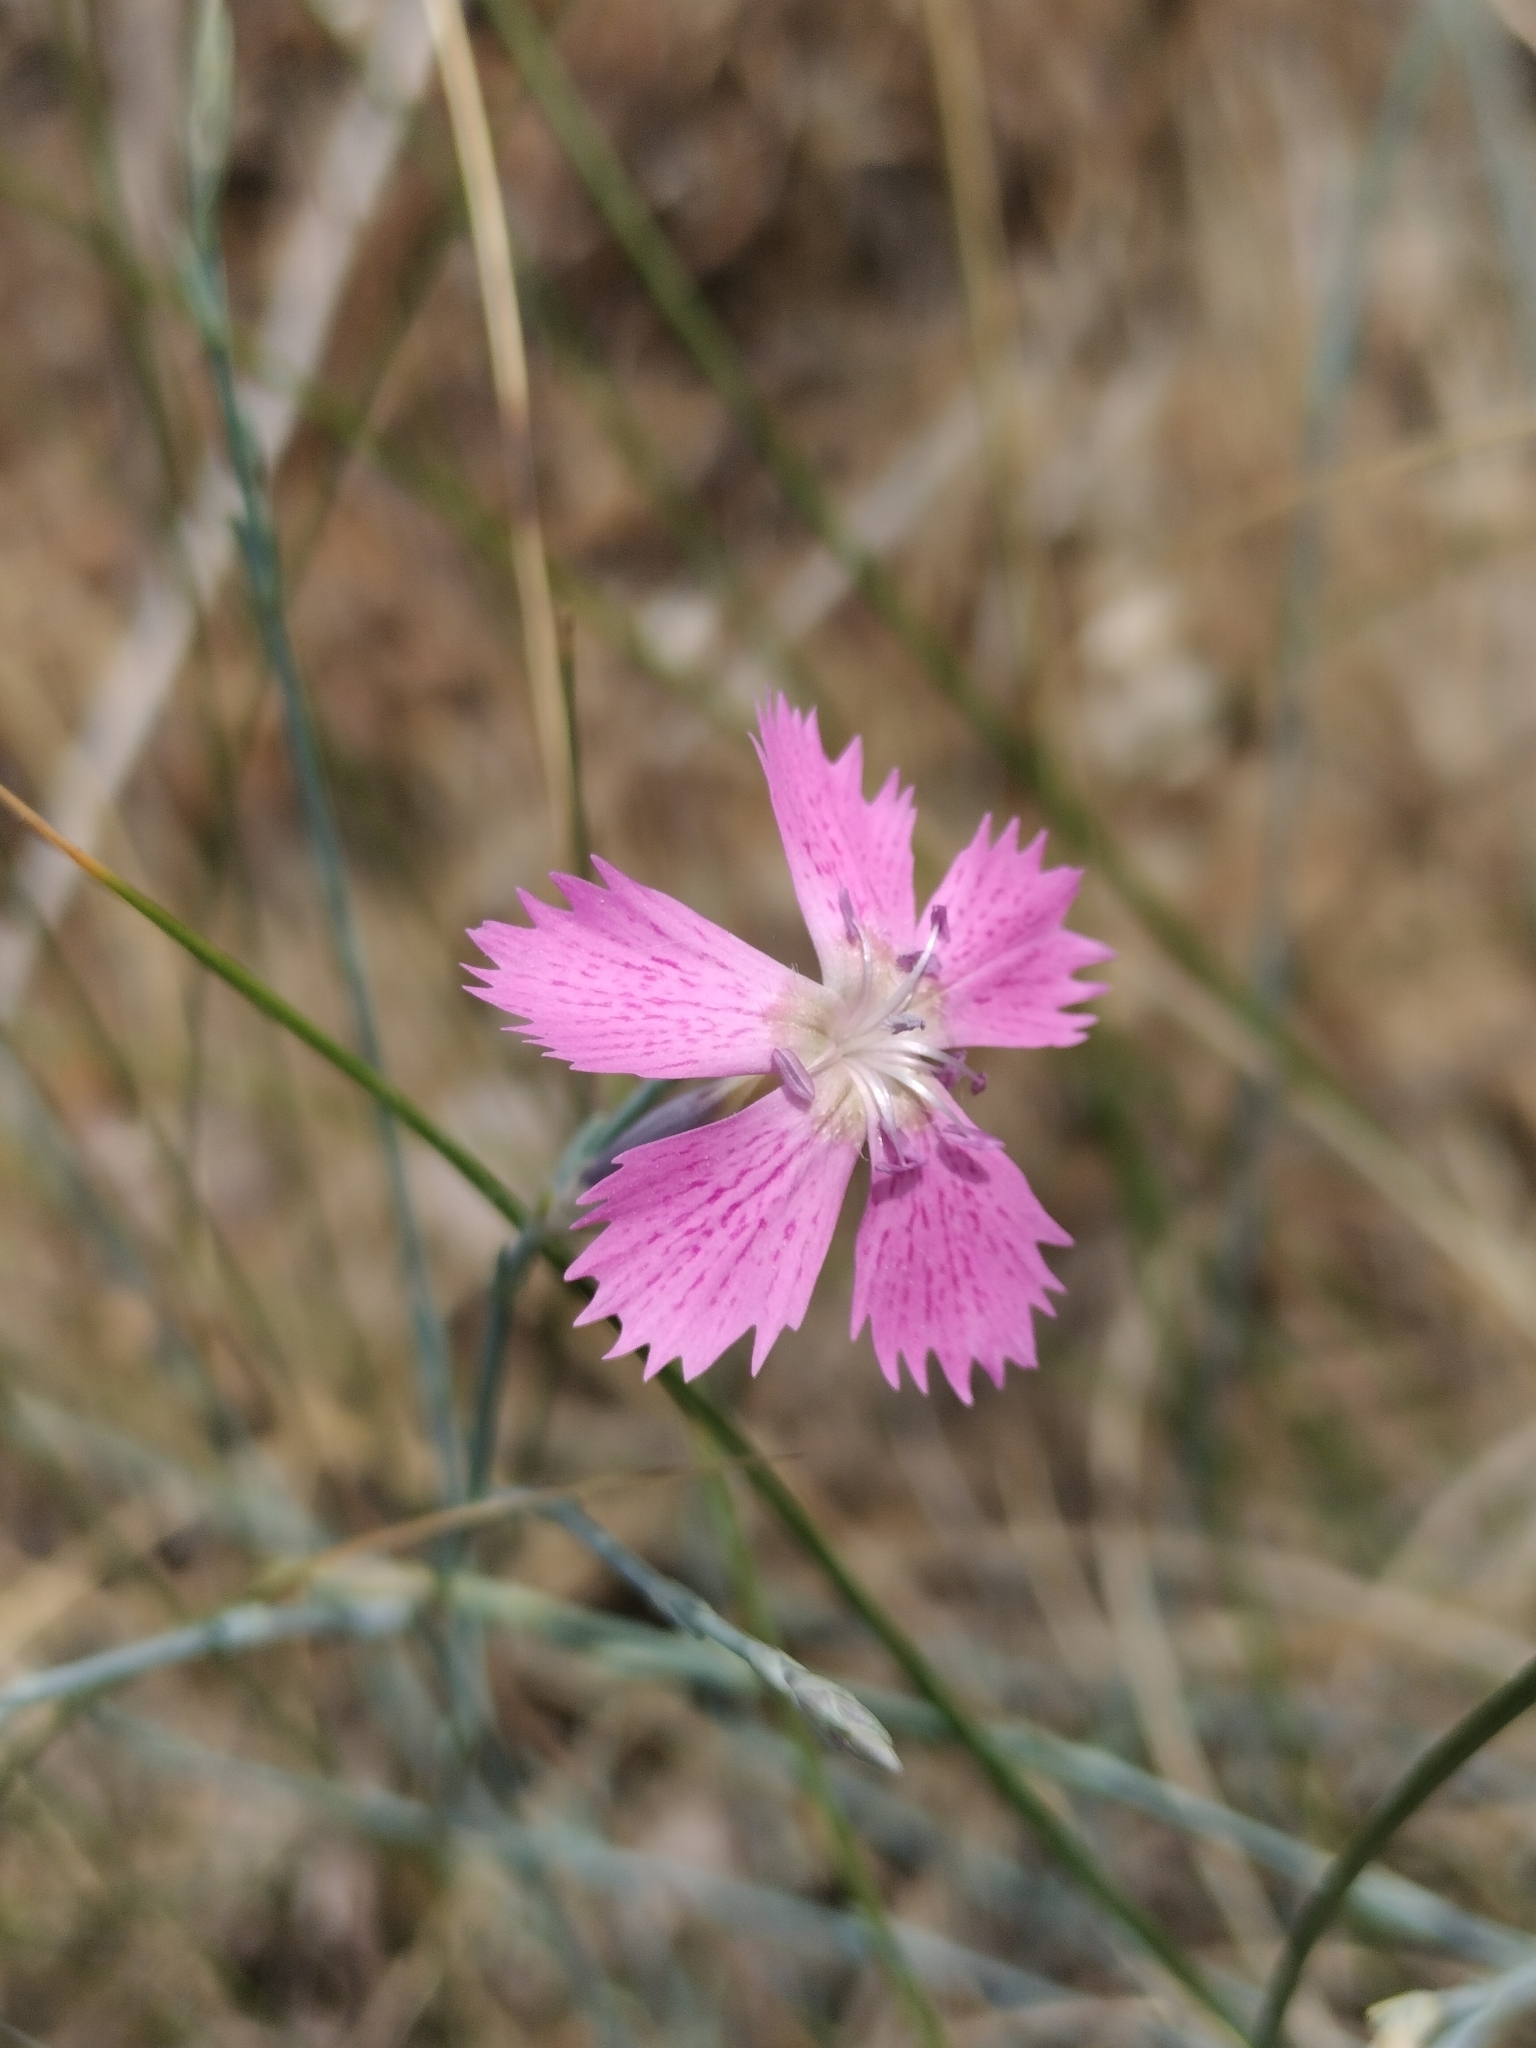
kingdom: Plantae
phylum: Tracheophyta
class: Magnoliopsida
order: Caryophyllales
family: Caryophyllaceae
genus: Dianthus
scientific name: Dianthus lusitanus
